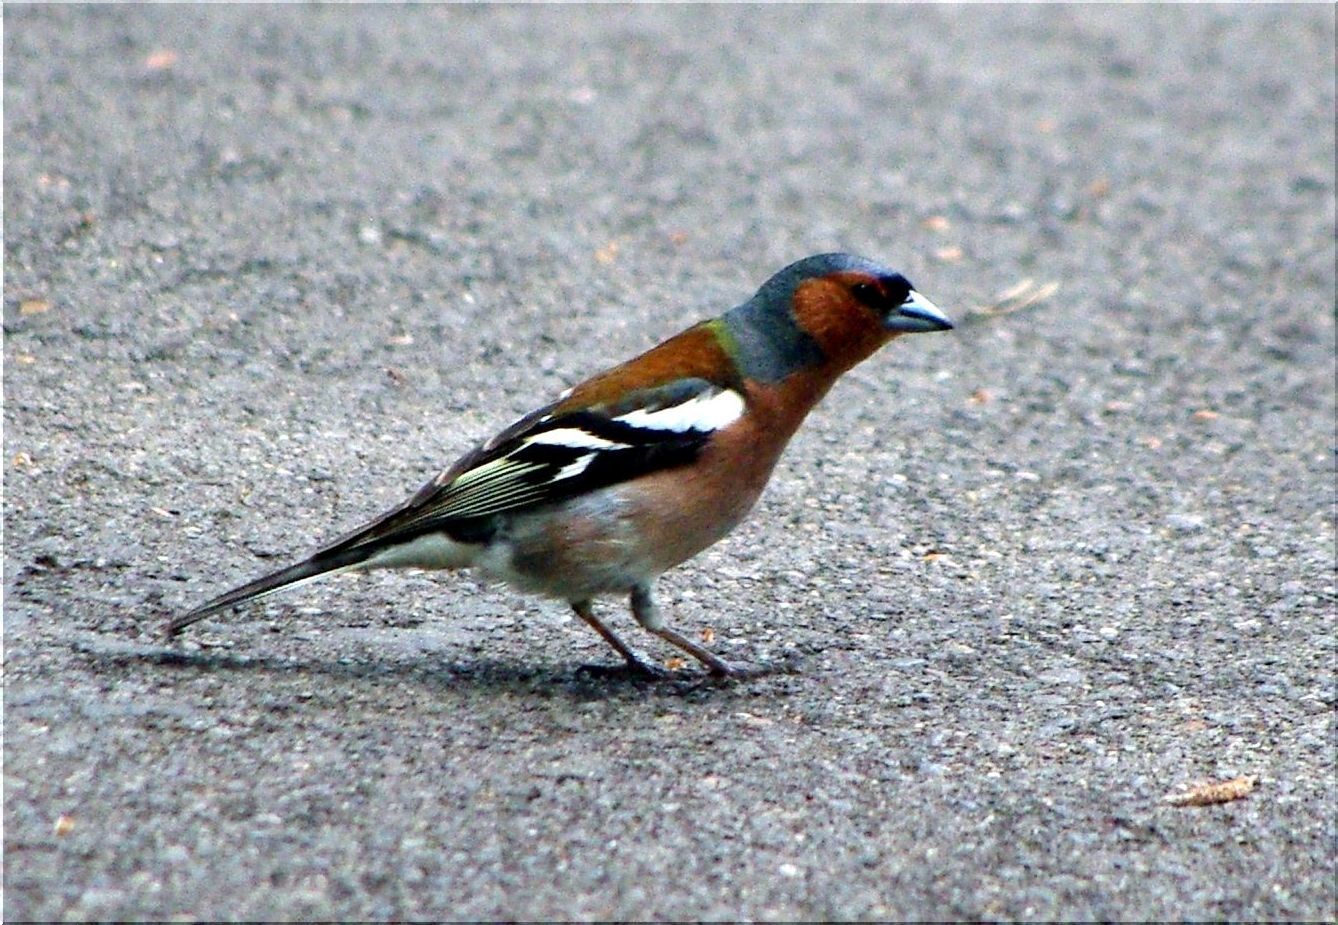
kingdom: Animalia
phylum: Chordata
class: Aves
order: Passeriformes
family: Fringillidae
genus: Fringilla
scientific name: Fringilla coelebs
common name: Common chaffinch
